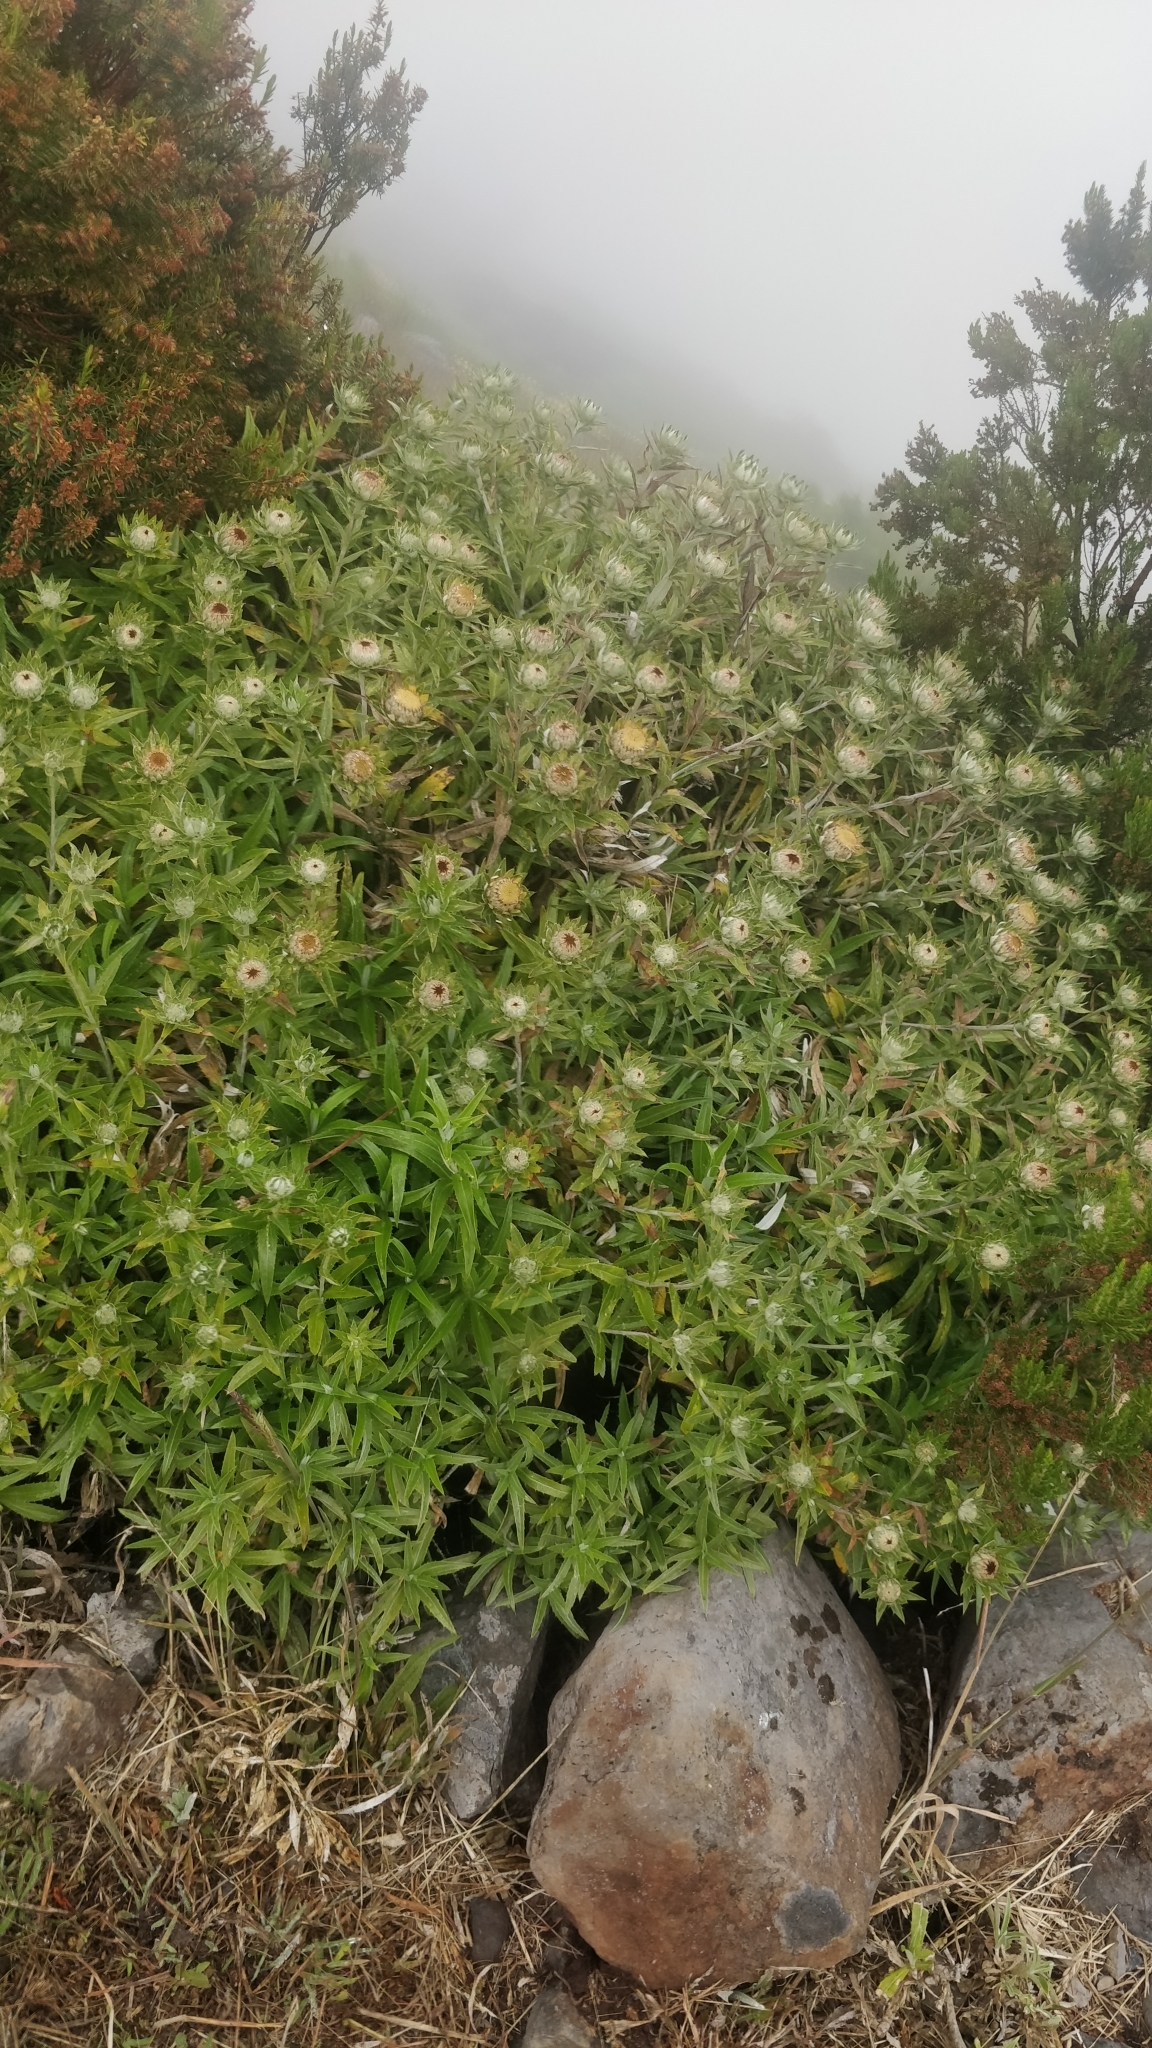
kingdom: Plantae
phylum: Tracheophyta
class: Magnoliopsida
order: Asterales
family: Asteraceae
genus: Carlina
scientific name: Carlina salicifolia
